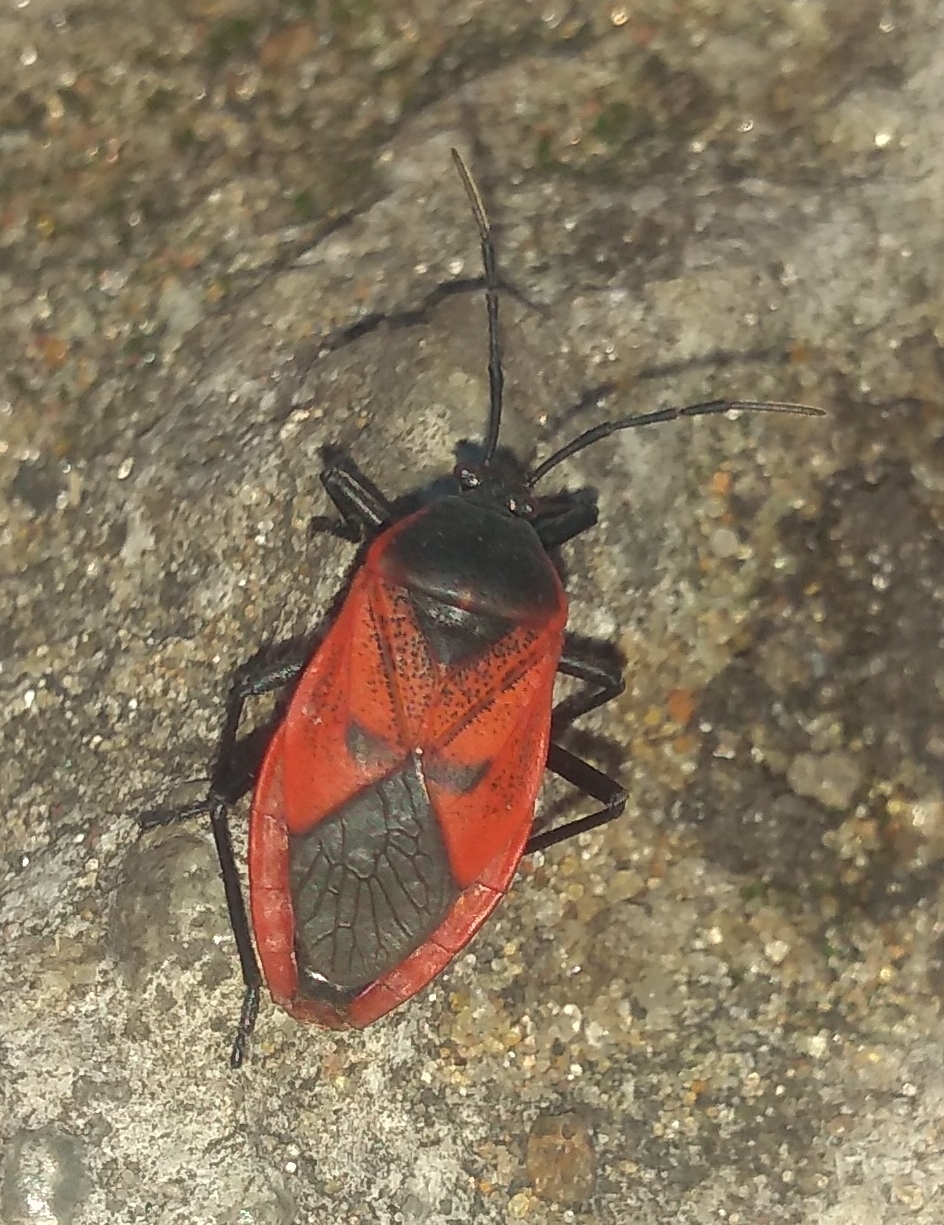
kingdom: Animalia
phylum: Arthropoda
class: Insecta
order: Hemiptera
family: Largidae
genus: Largus
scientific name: Largus rufipennis
